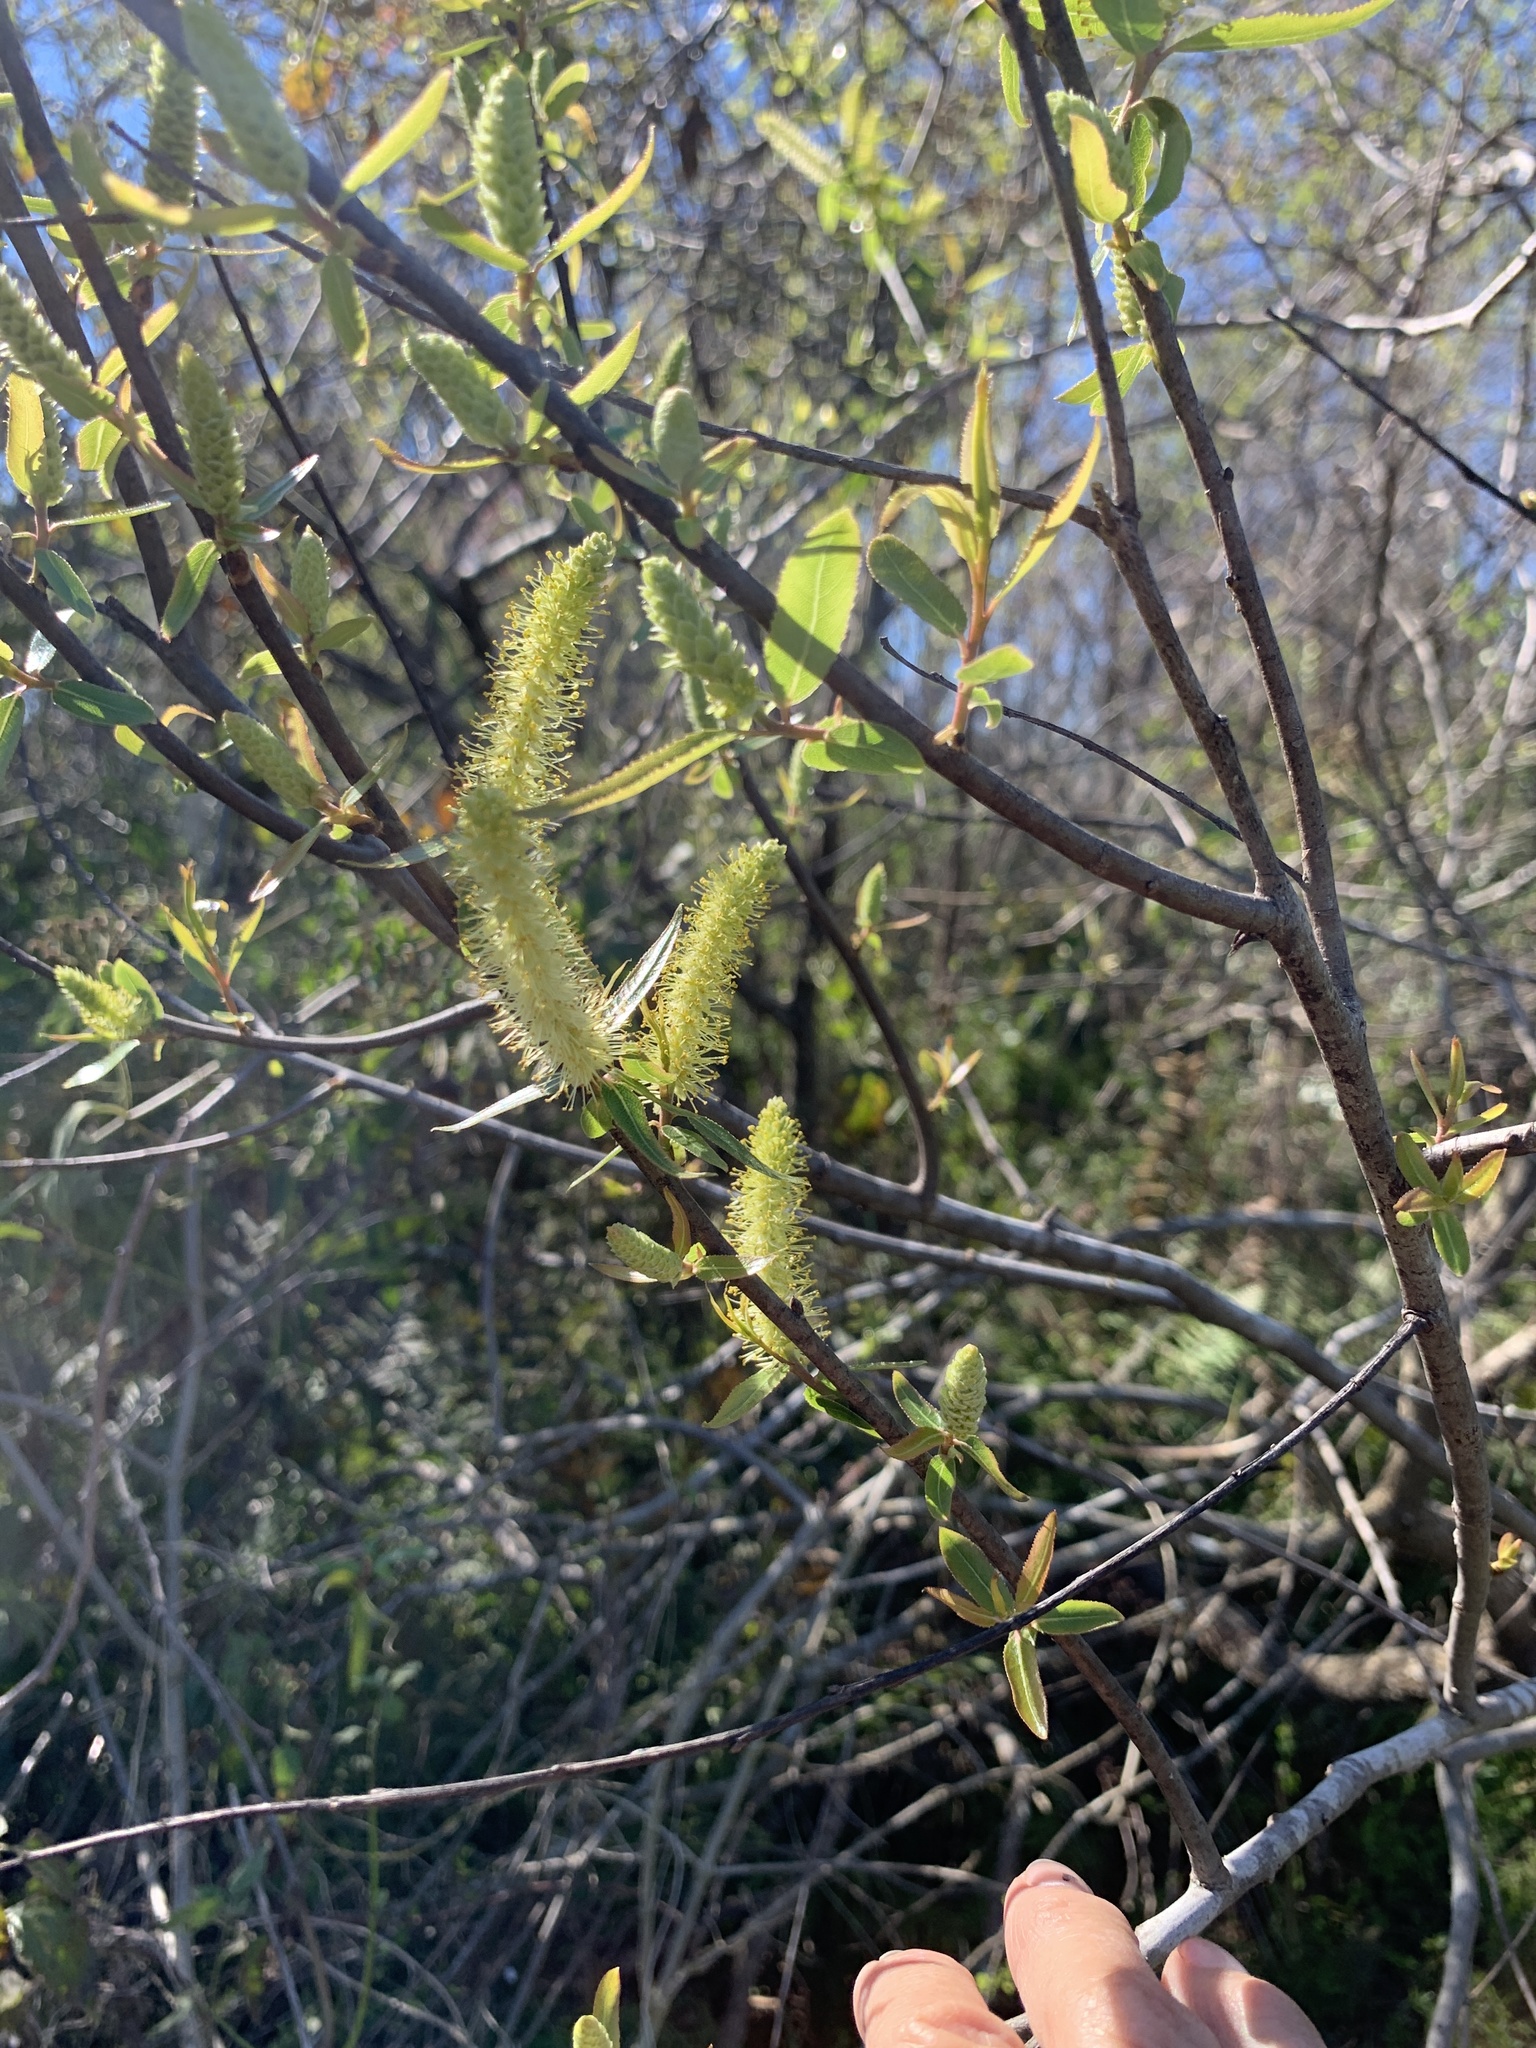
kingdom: Plantae
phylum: Tracheophyta
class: Magnoliopsida
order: Malpighiales
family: Salicaceae
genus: Salix
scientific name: Salix caroliniana
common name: Carolina willow
